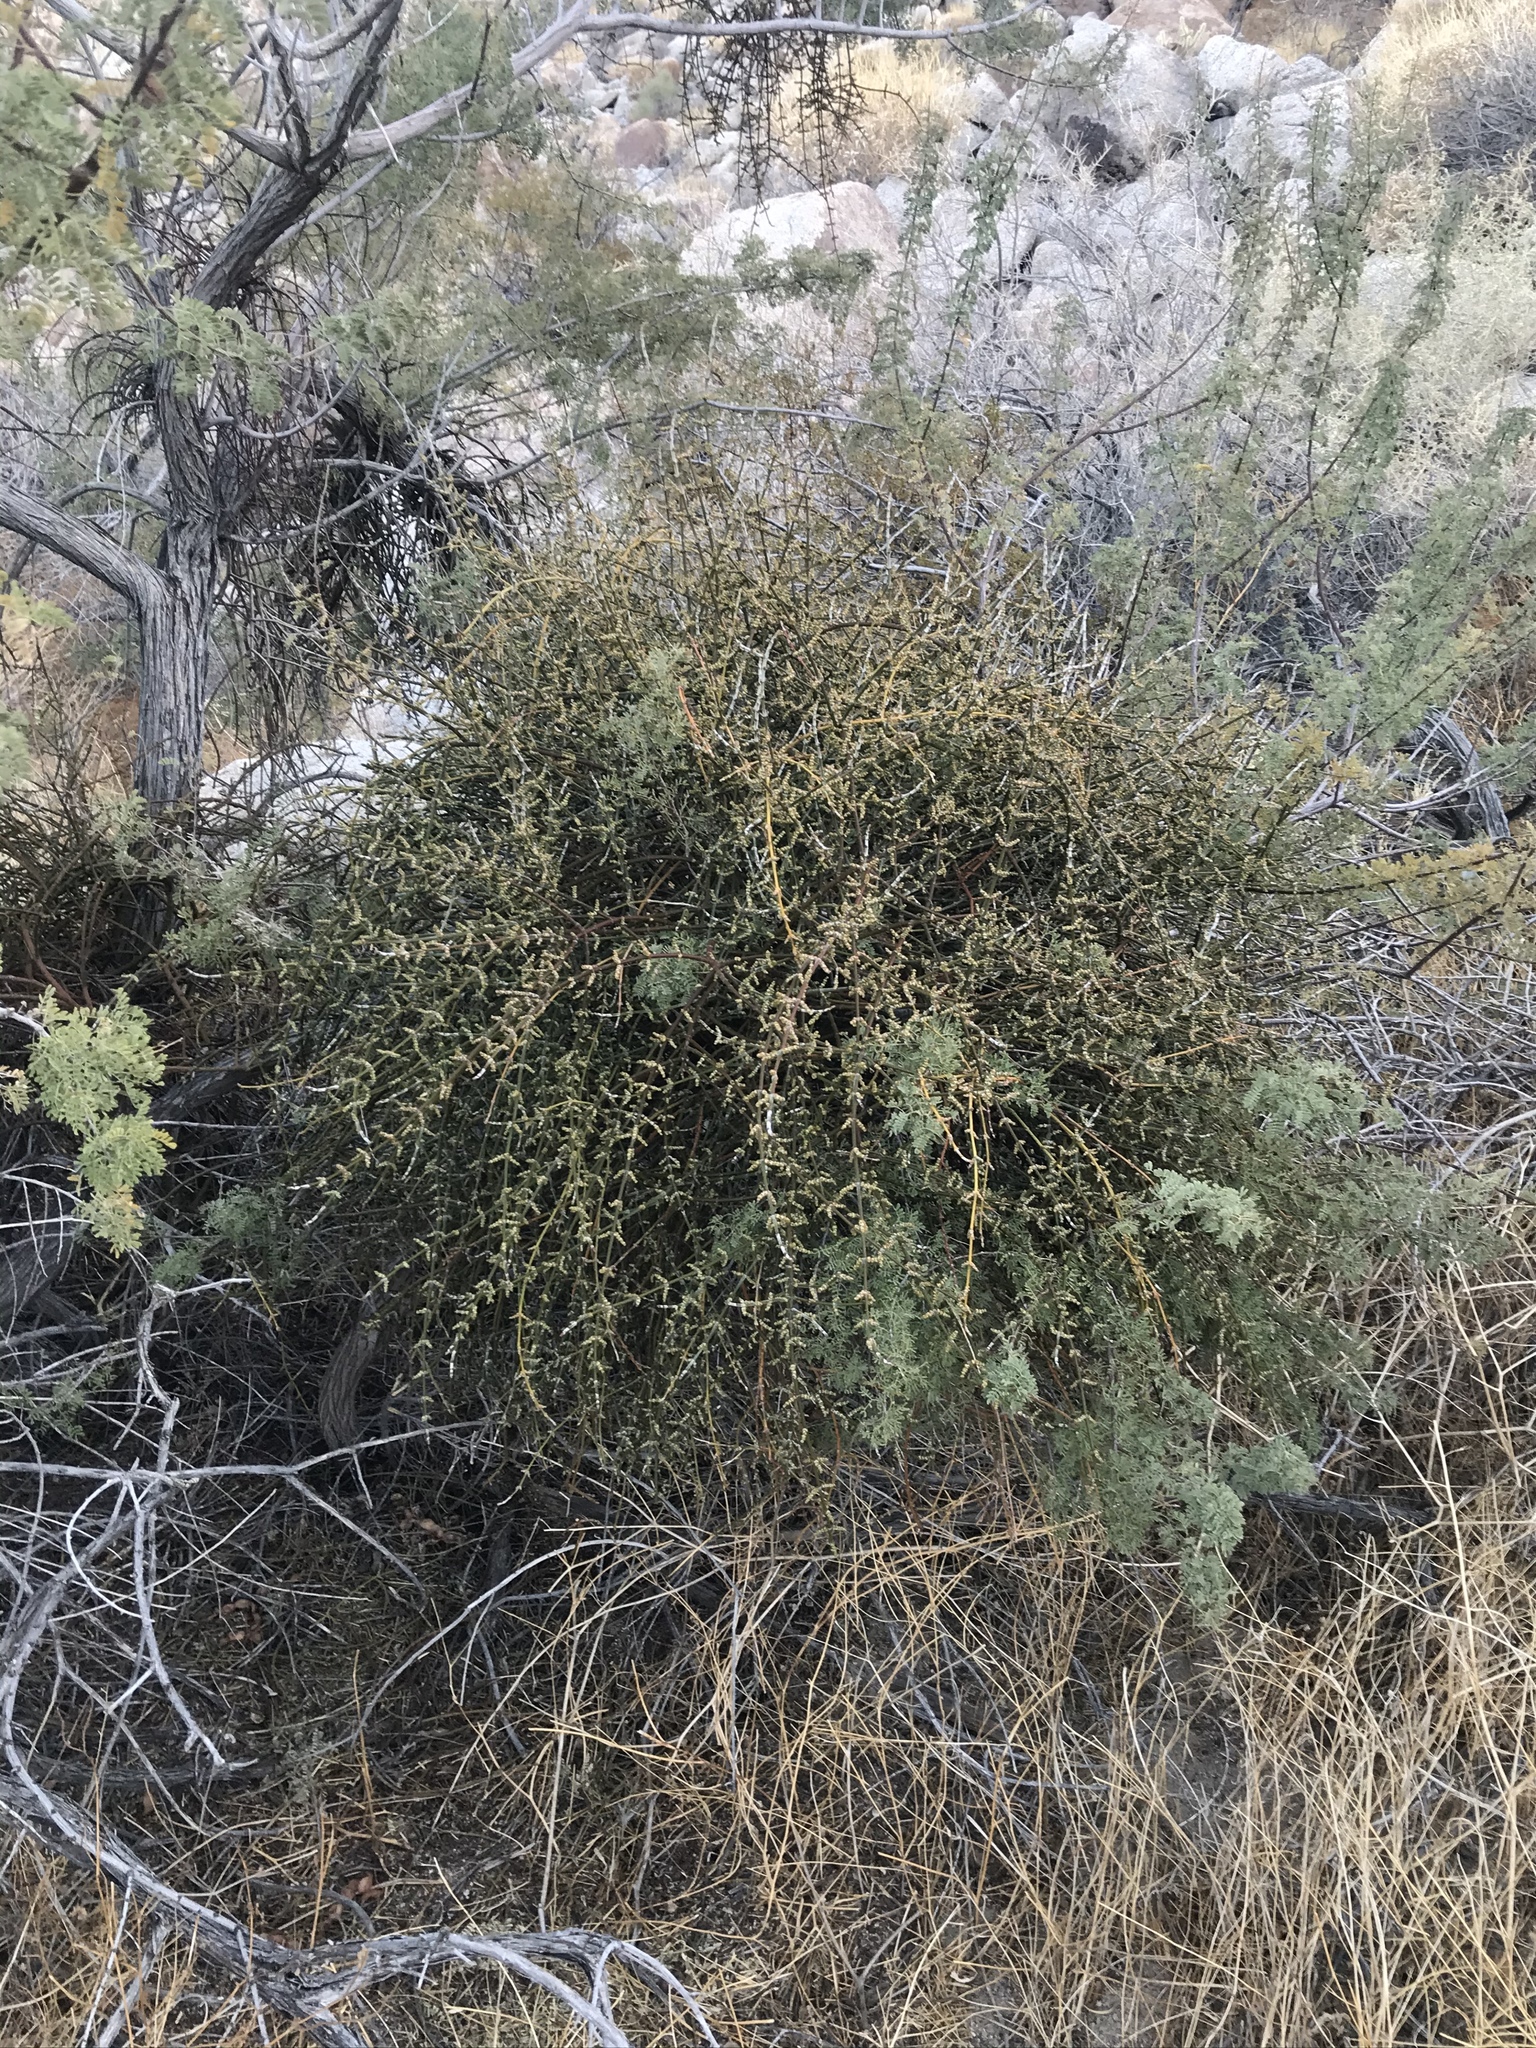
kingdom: Plantae
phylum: Tracheophyta
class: Magnoliopsida
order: Santalales
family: Viscaceae
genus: Phoradendron
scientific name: Phoradendron californicum
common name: Acacia mistletoe
